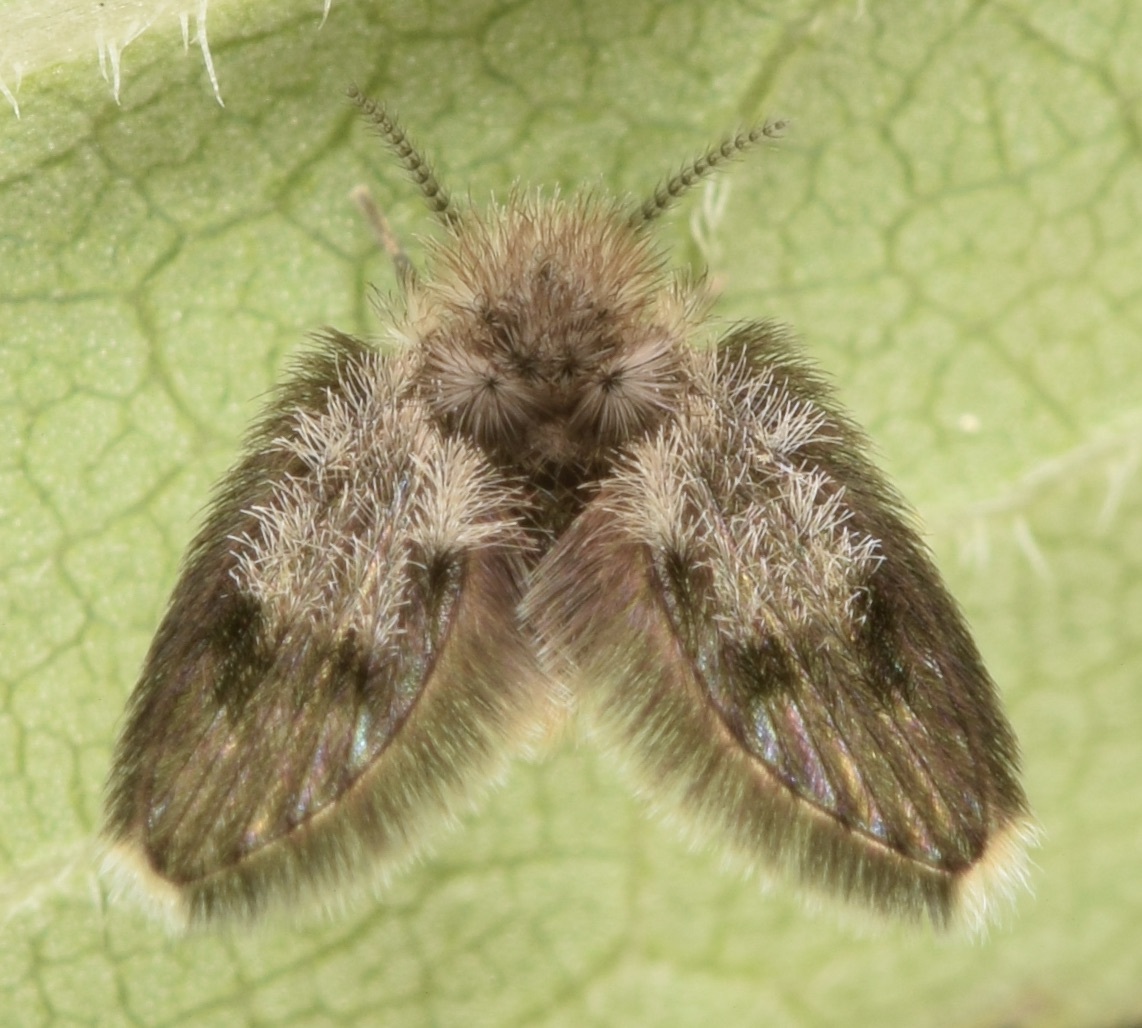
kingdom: Animalia
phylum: Arthropoda
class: Insecta
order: Diptera
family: Psychodidae
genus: Lepiseodina
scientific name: Lepiseodina
